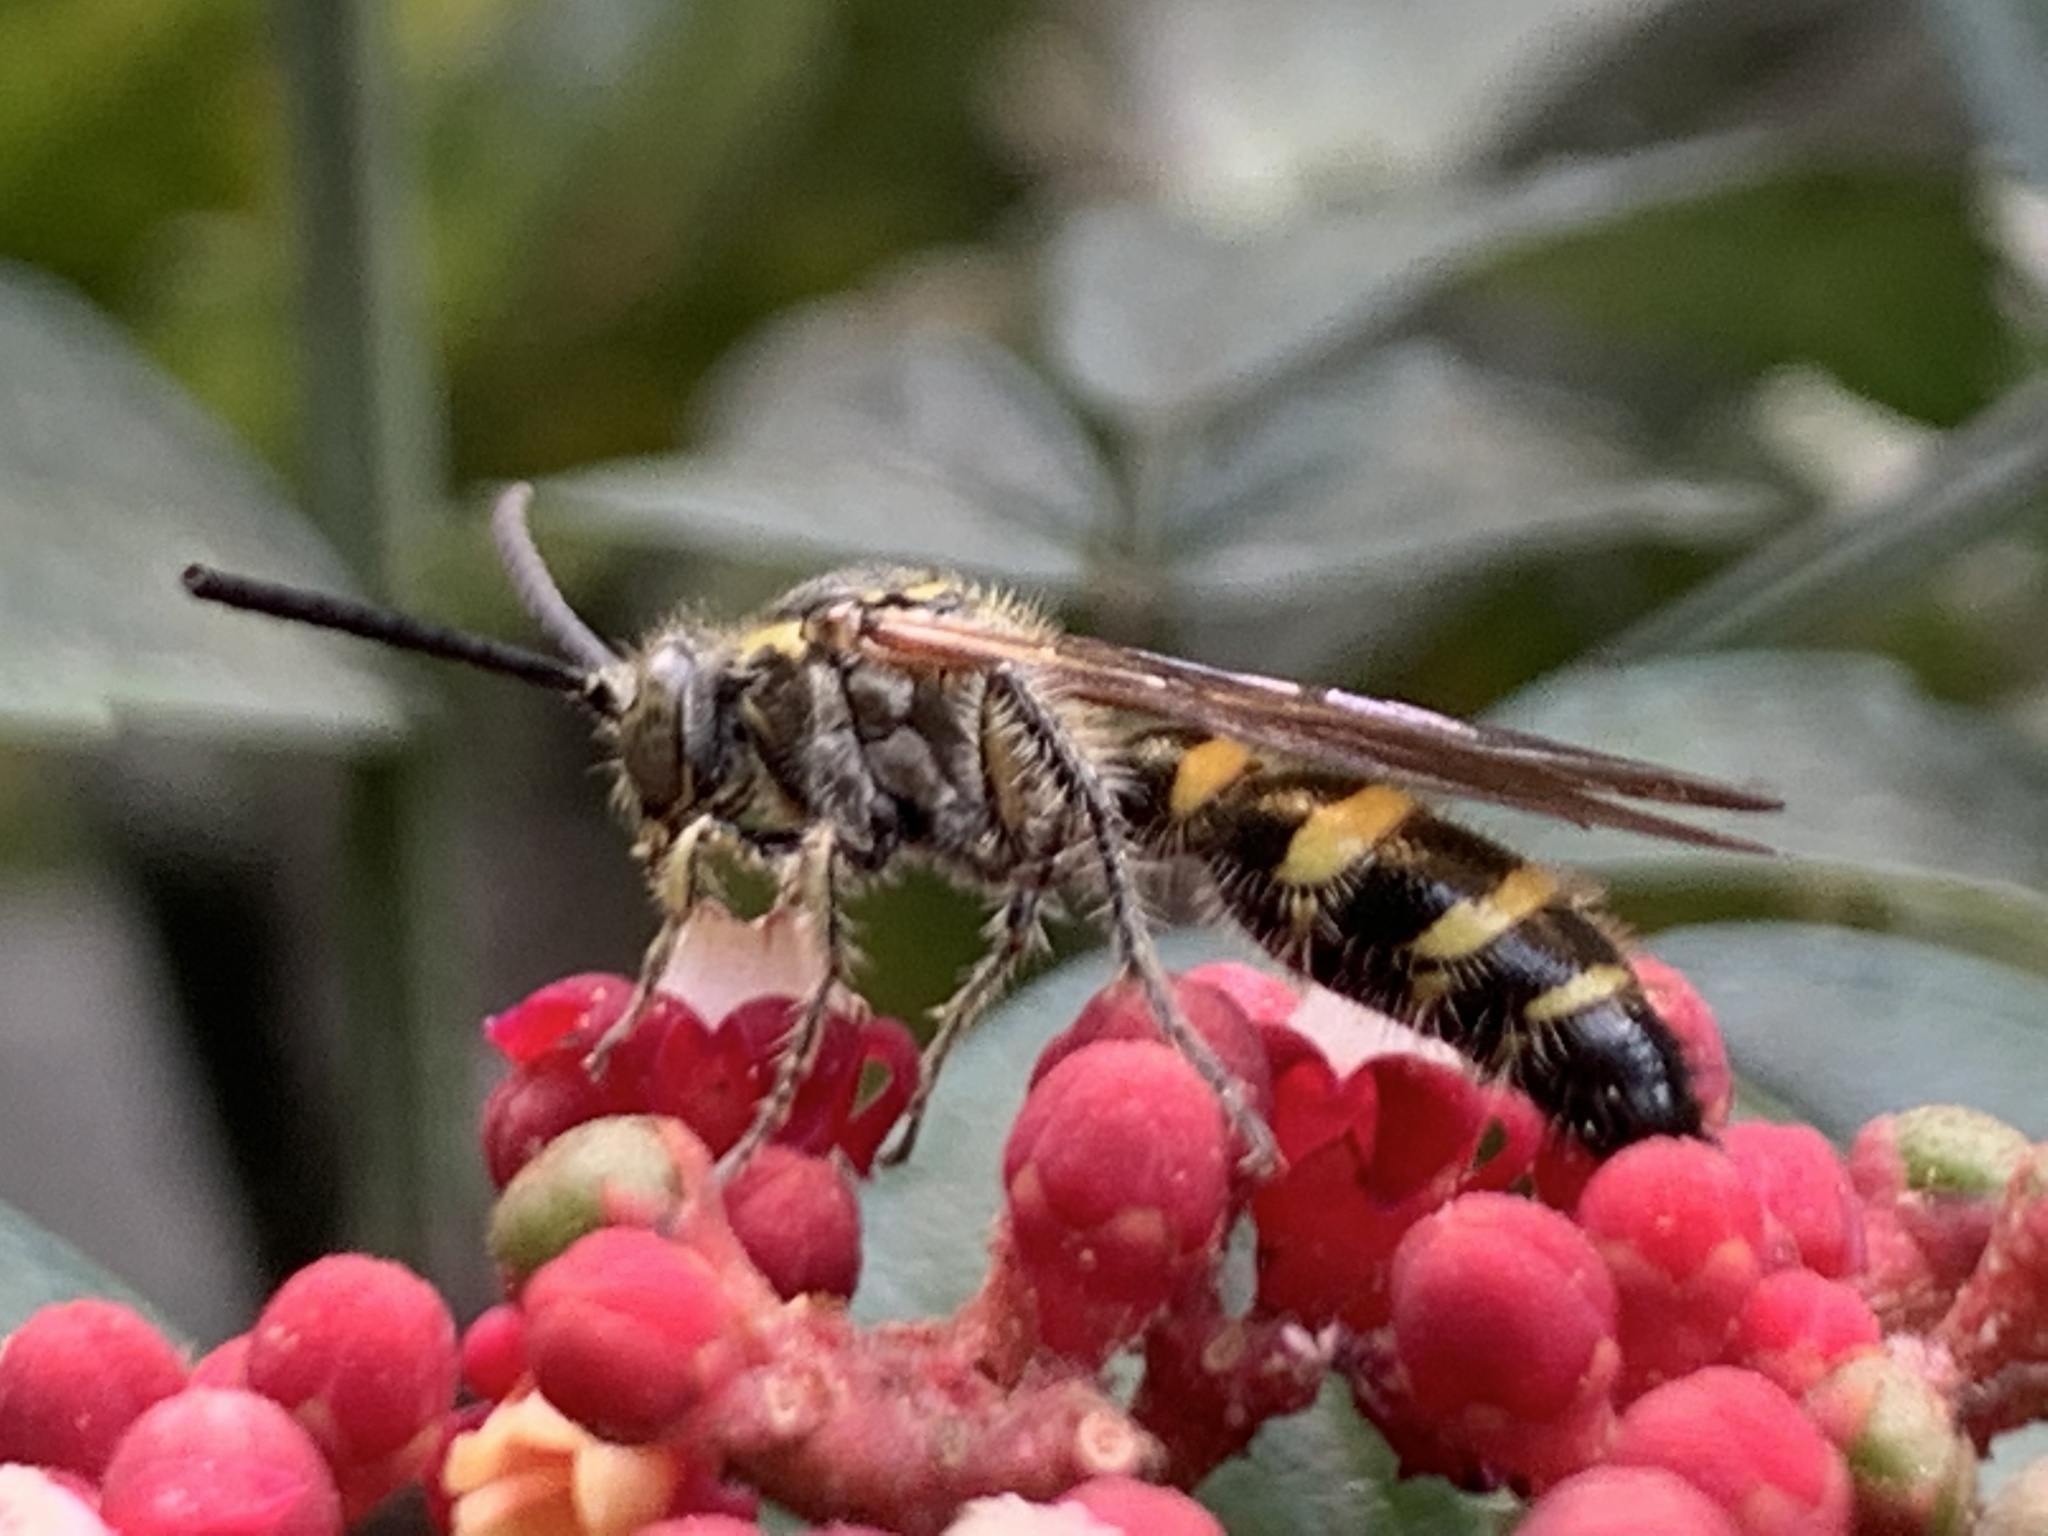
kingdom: Animalia
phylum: Arthropoda
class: Insecta
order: Hymenoptera
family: Scoliidae
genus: Campsomeris
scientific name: Campsomeris phalerata
